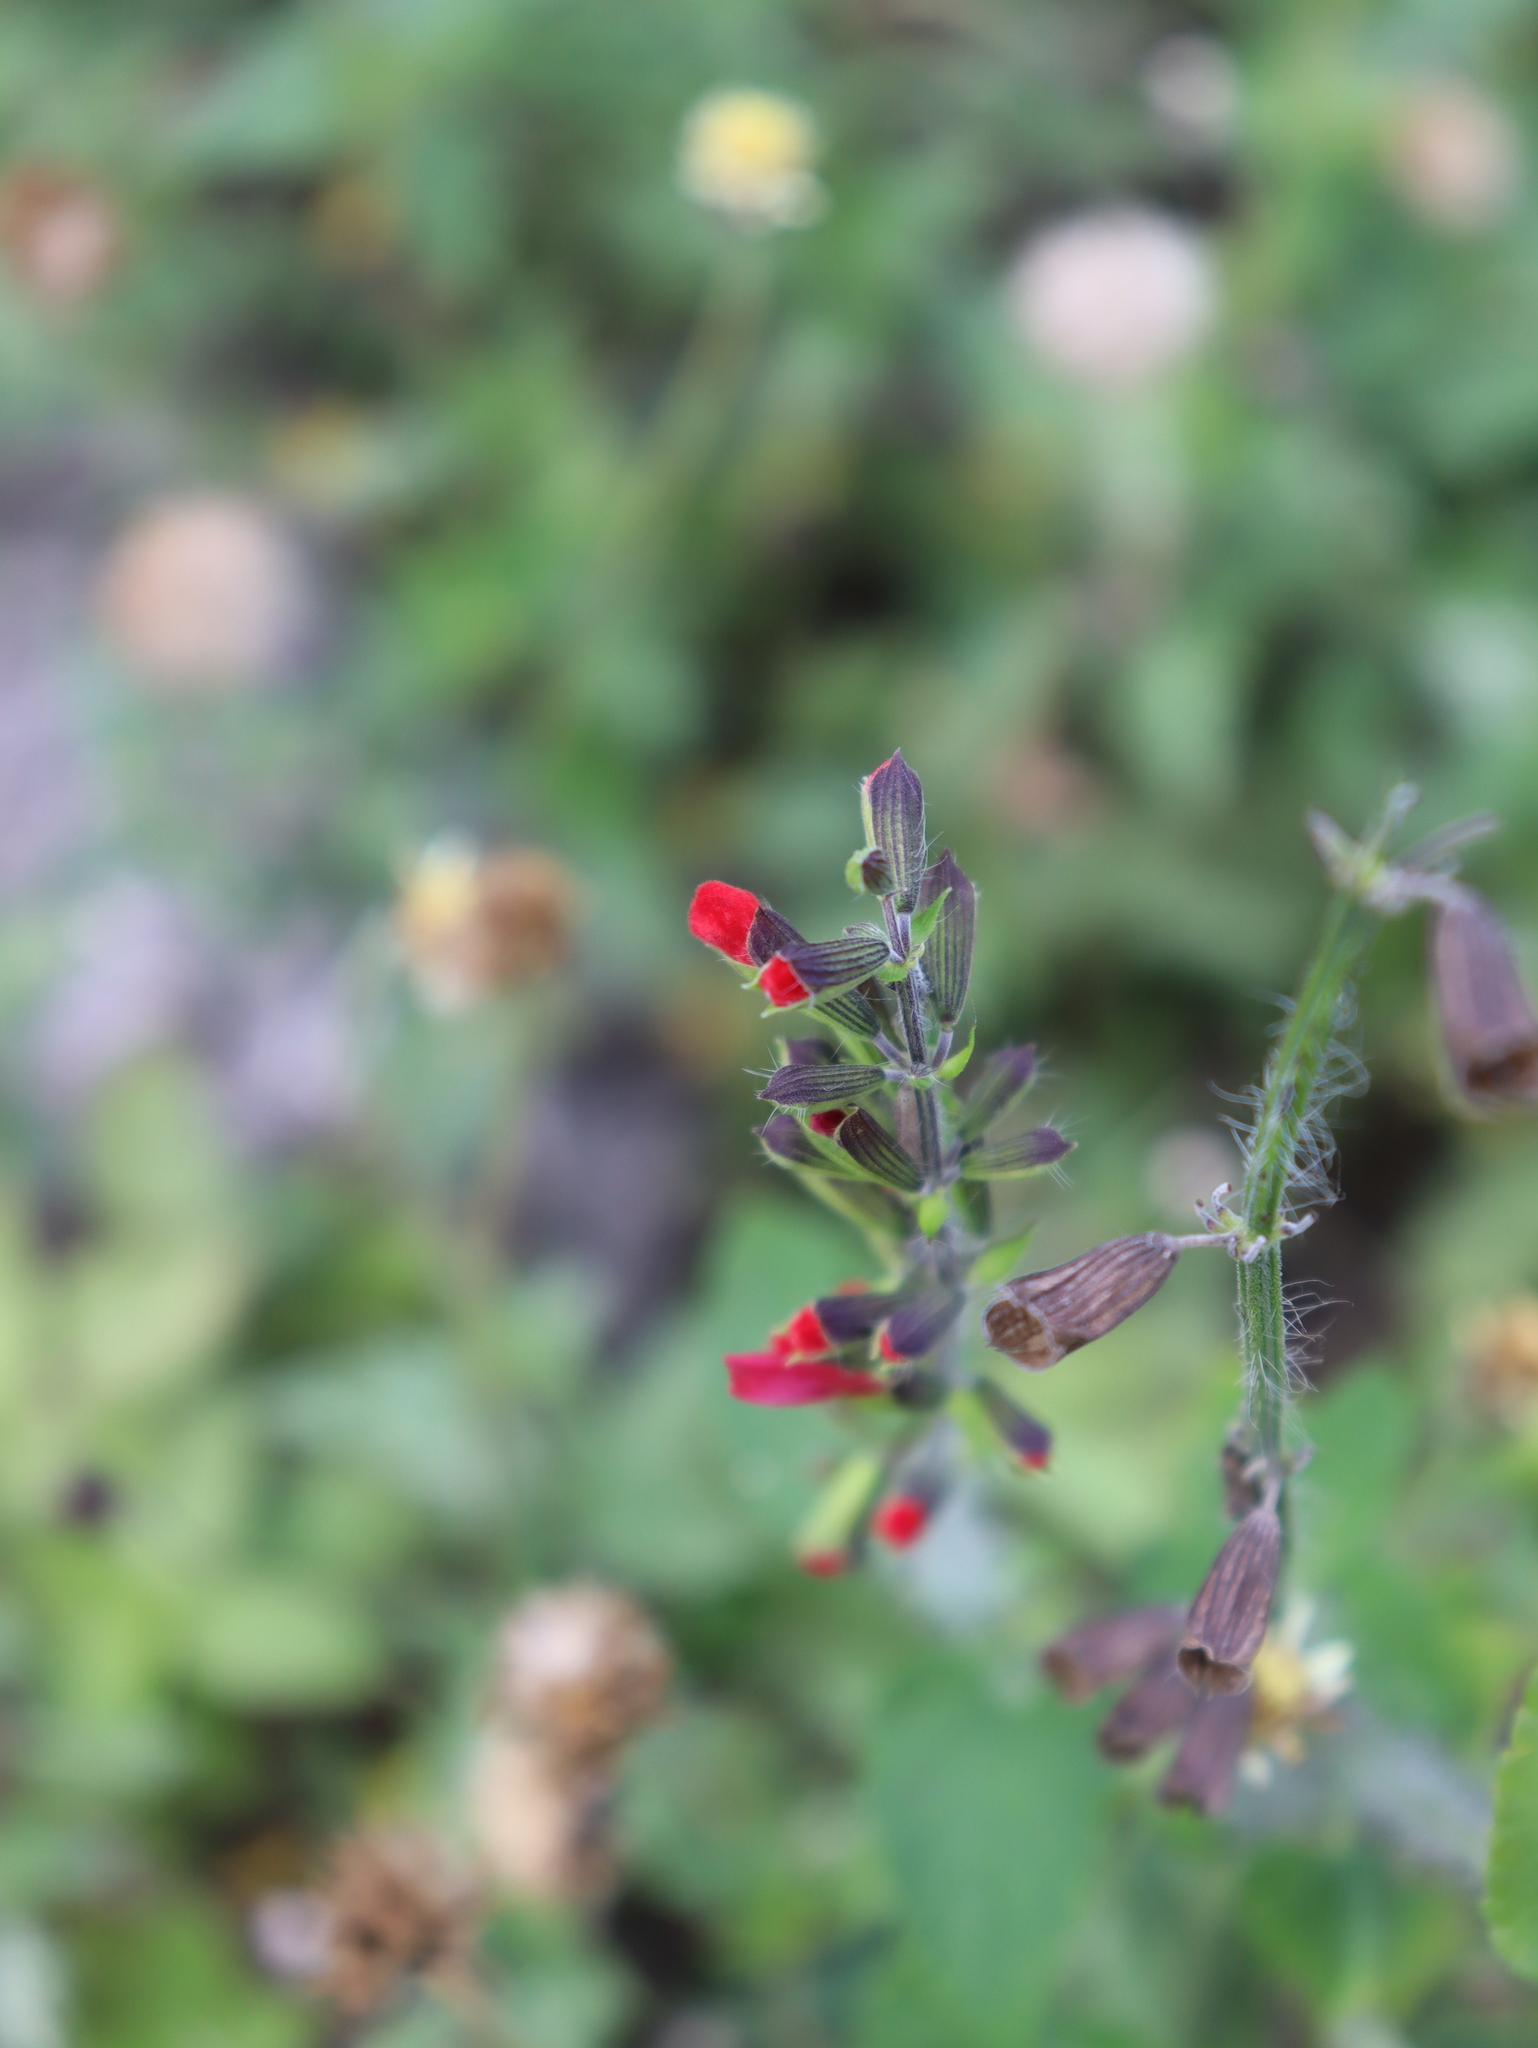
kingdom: Plantae
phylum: Tracheophyta
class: Magnoliopsida
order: Lamiales
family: Lamiaceae
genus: Salvia
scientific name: Salvia coccinea
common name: Blood sage
